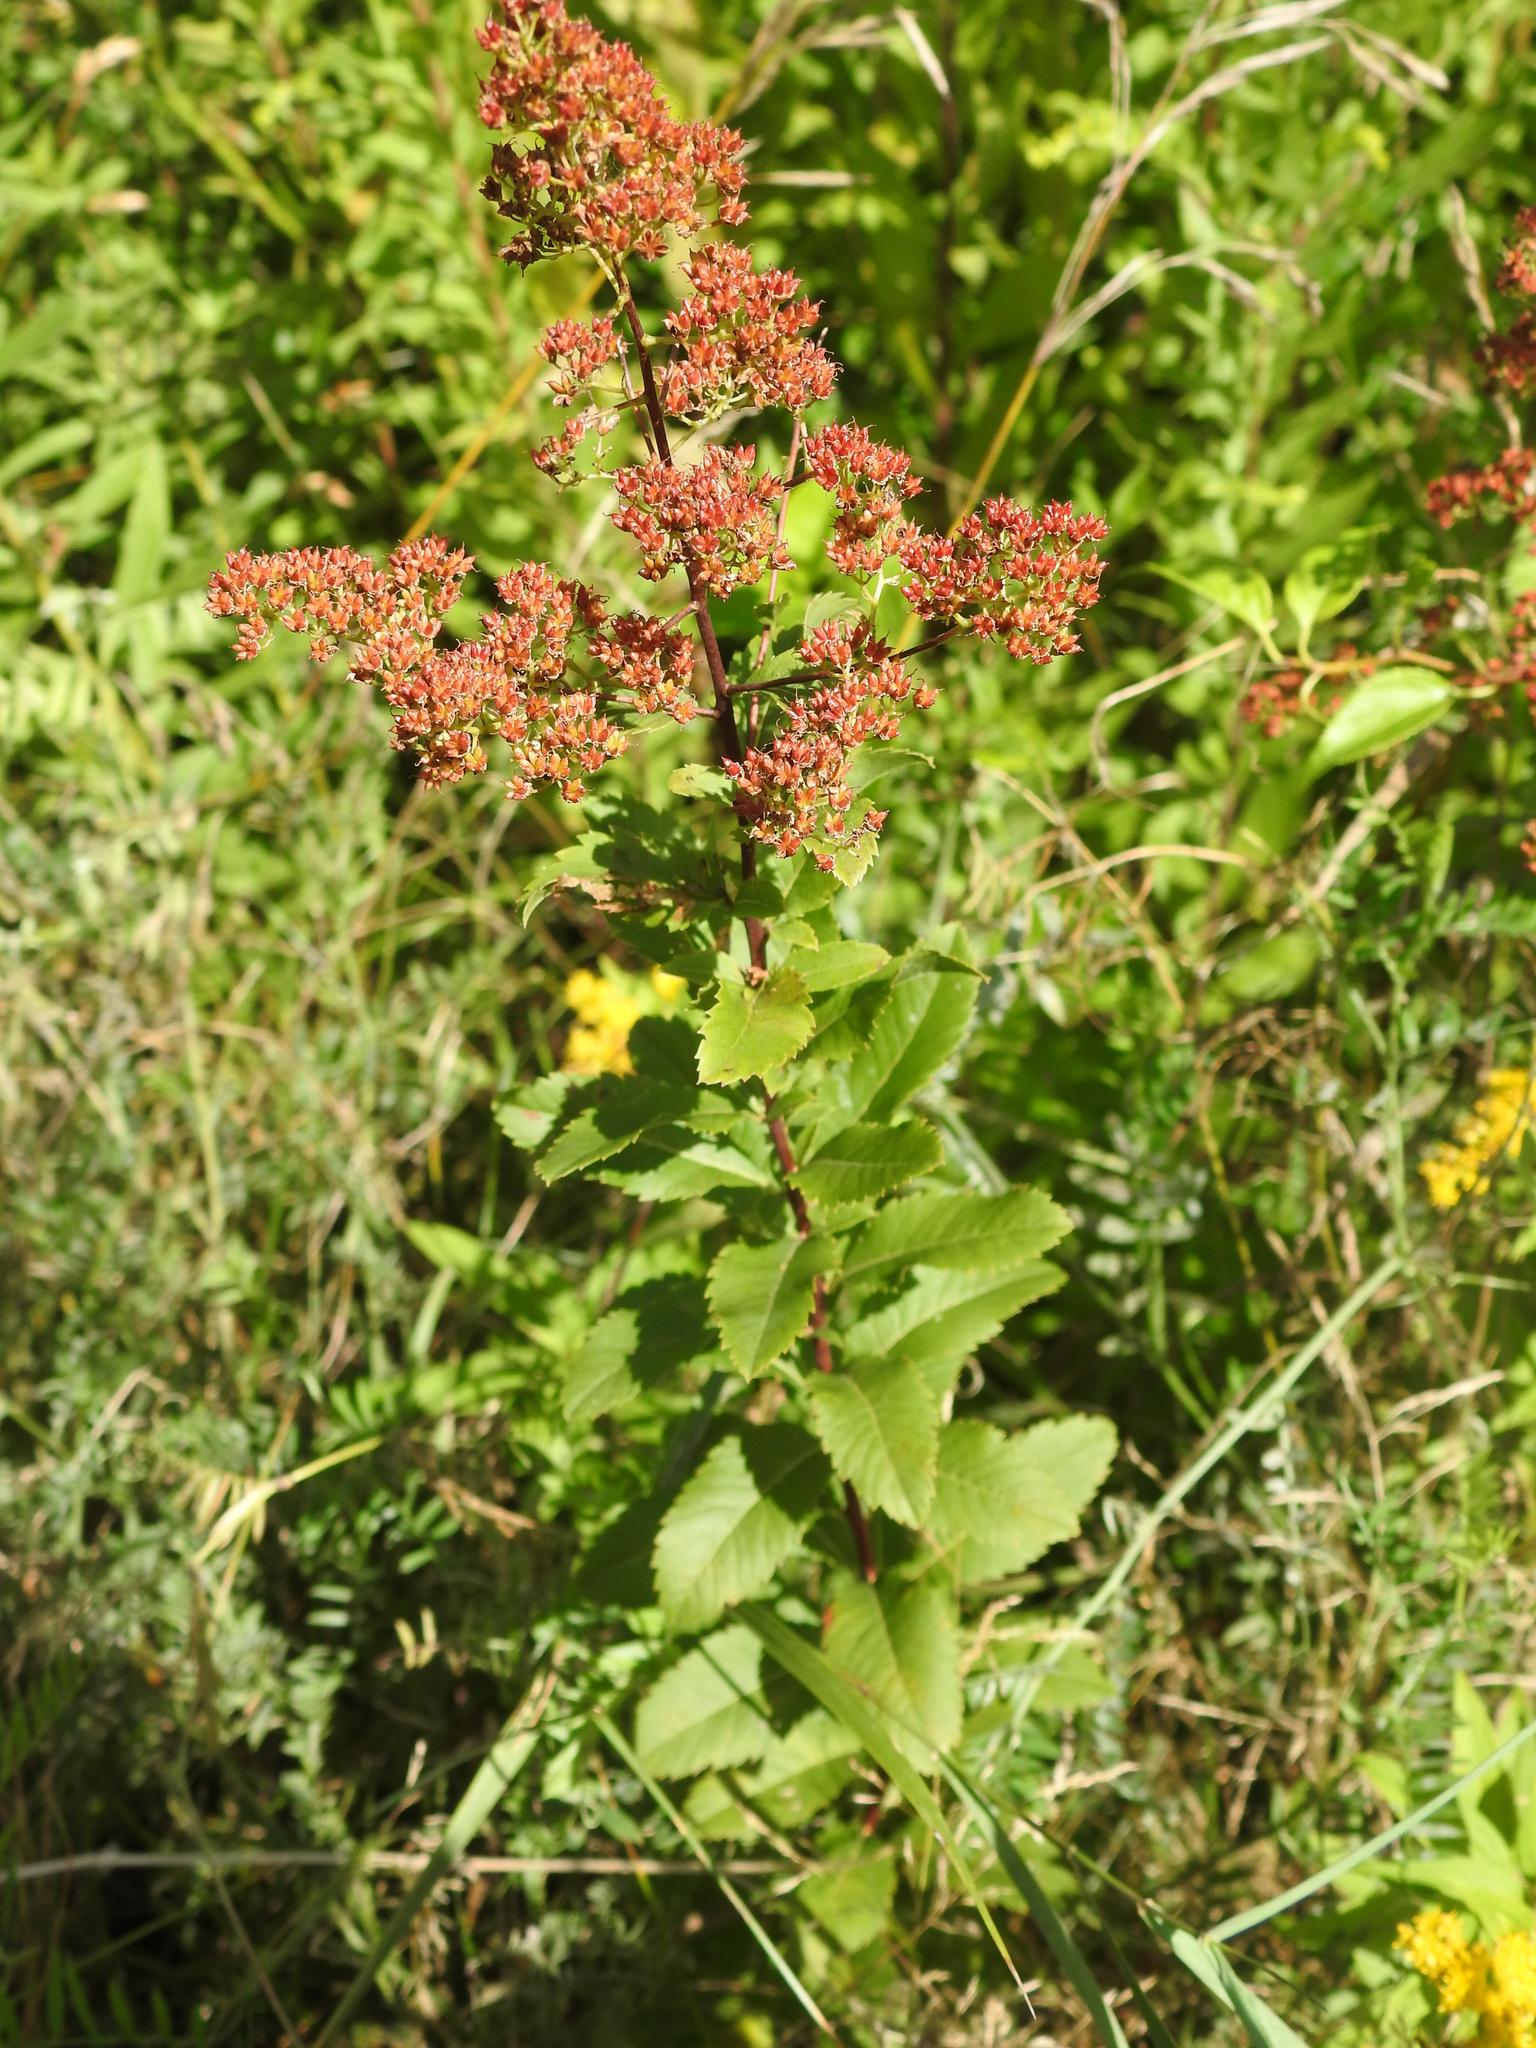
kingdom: Plantae
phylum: Tracheophyta
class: Magnoliopsida
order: Rosales
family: Rosaceae
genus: Spiraea
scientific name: Spiraea alba
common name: Pale bridewort
